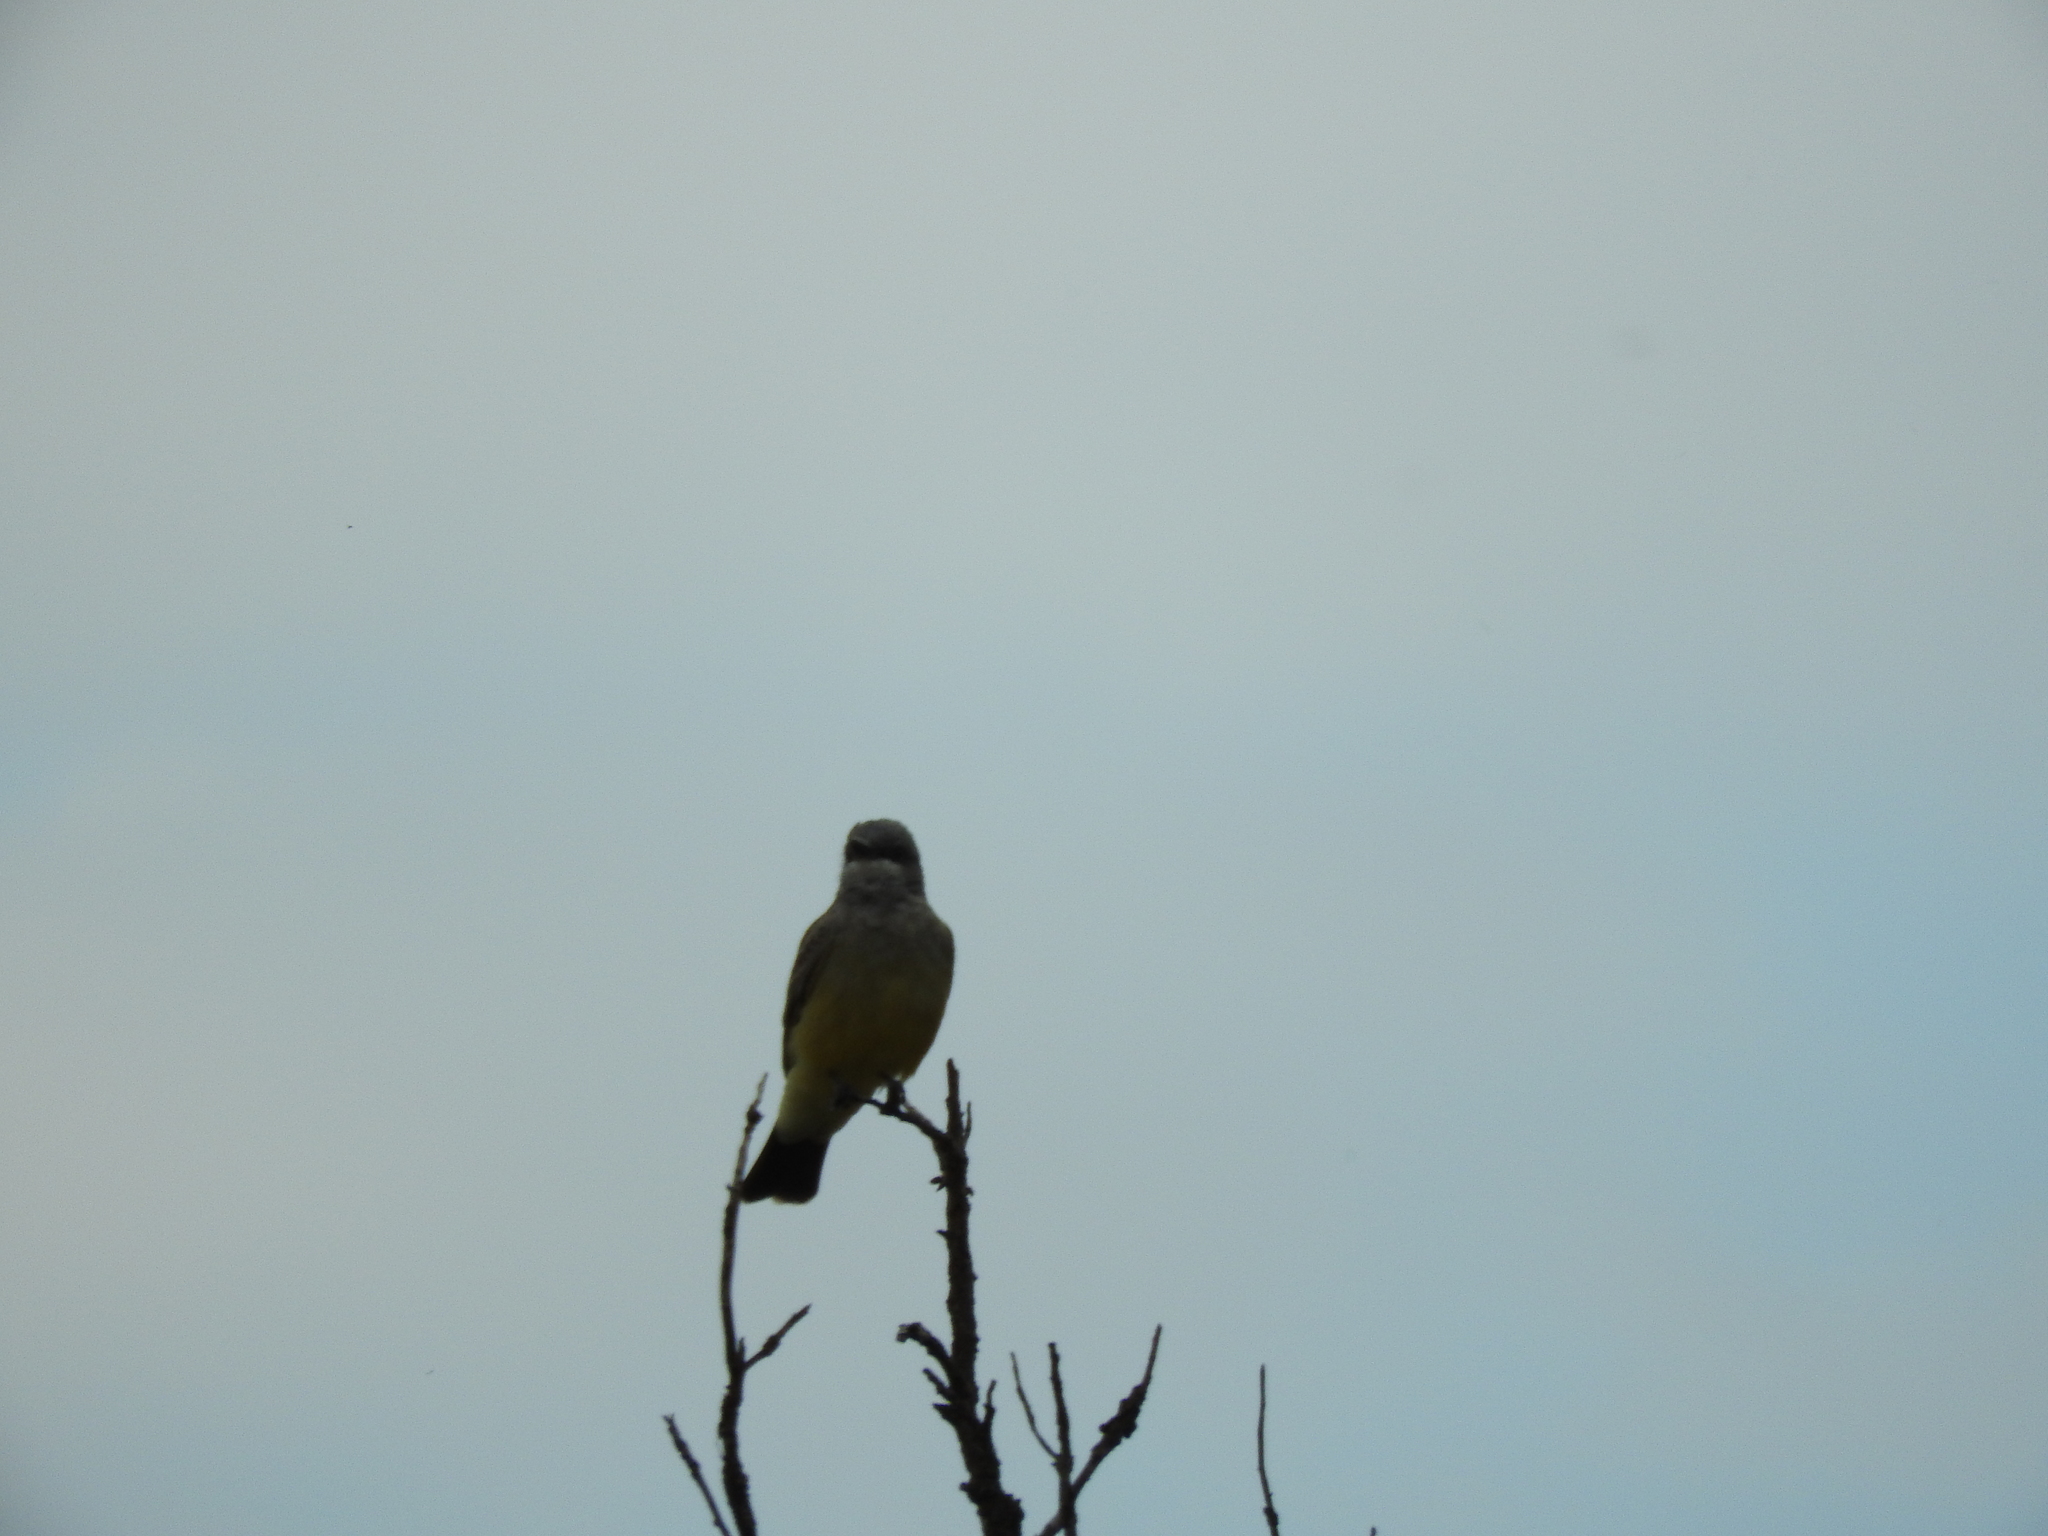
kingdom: Animalia
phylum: Chordata
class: Aves
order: Passeriformes
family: Tyrannidae
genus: Tyrannus
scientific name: Tyrannus vociferans
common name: Cassin's kingbird
